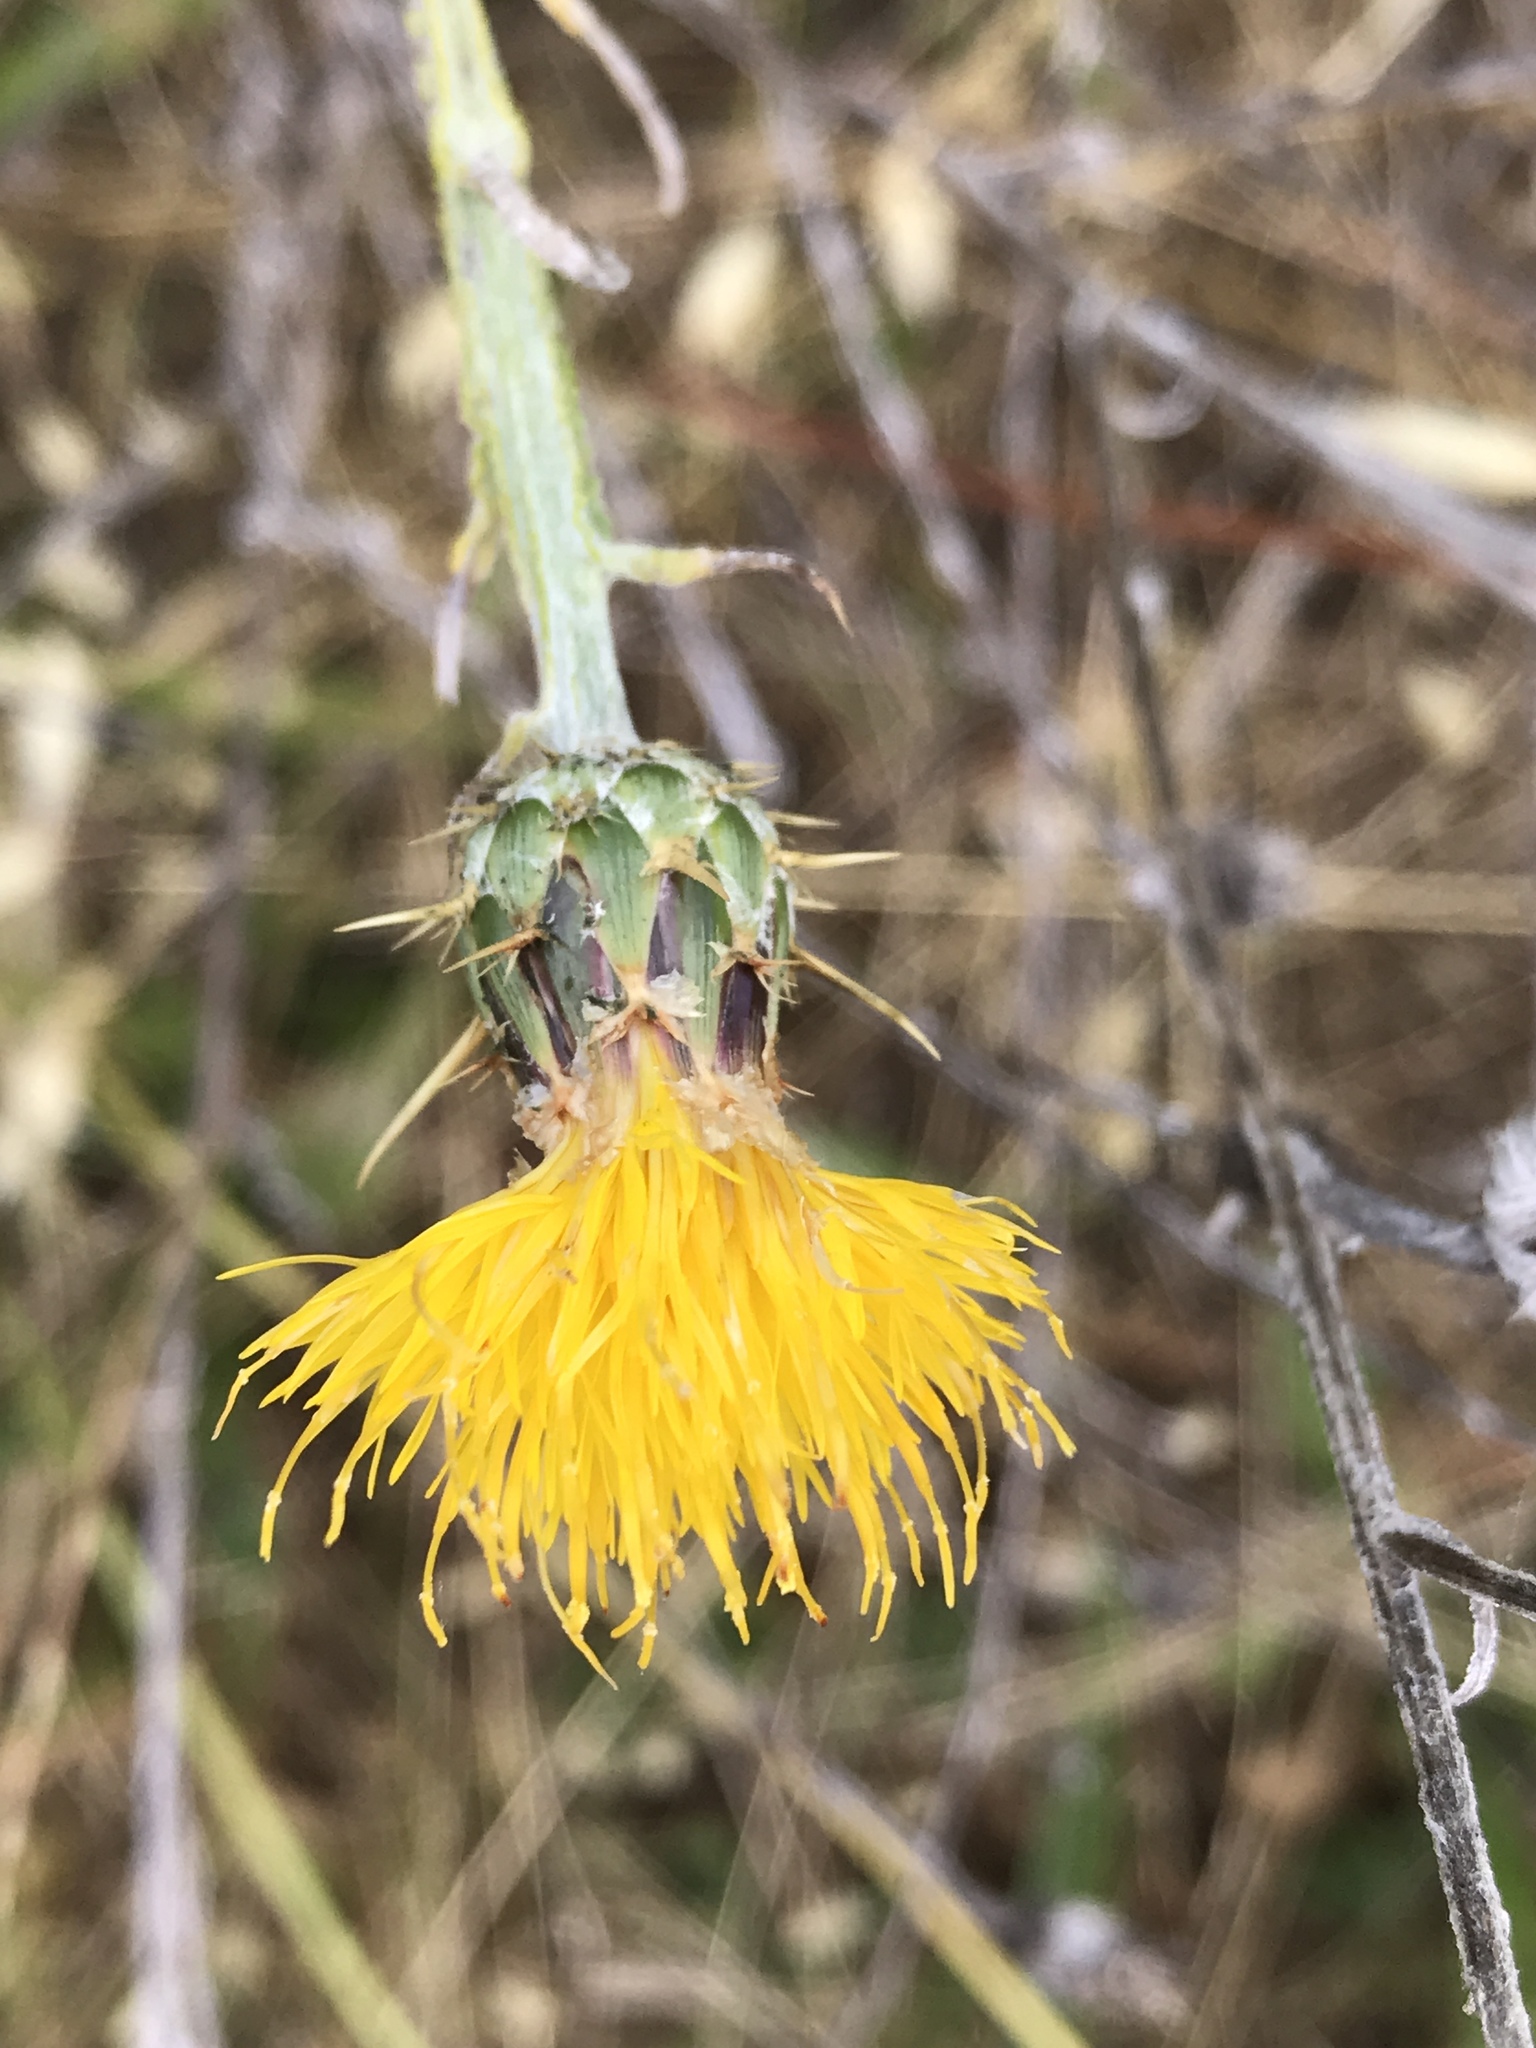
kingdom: Plantae
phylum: Tracheophyta
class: Magnoliopsida
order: Asterales
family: Asteraceae
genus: Centaurea
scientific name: Centaurea solstitialis
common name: Yellow star-thistle
